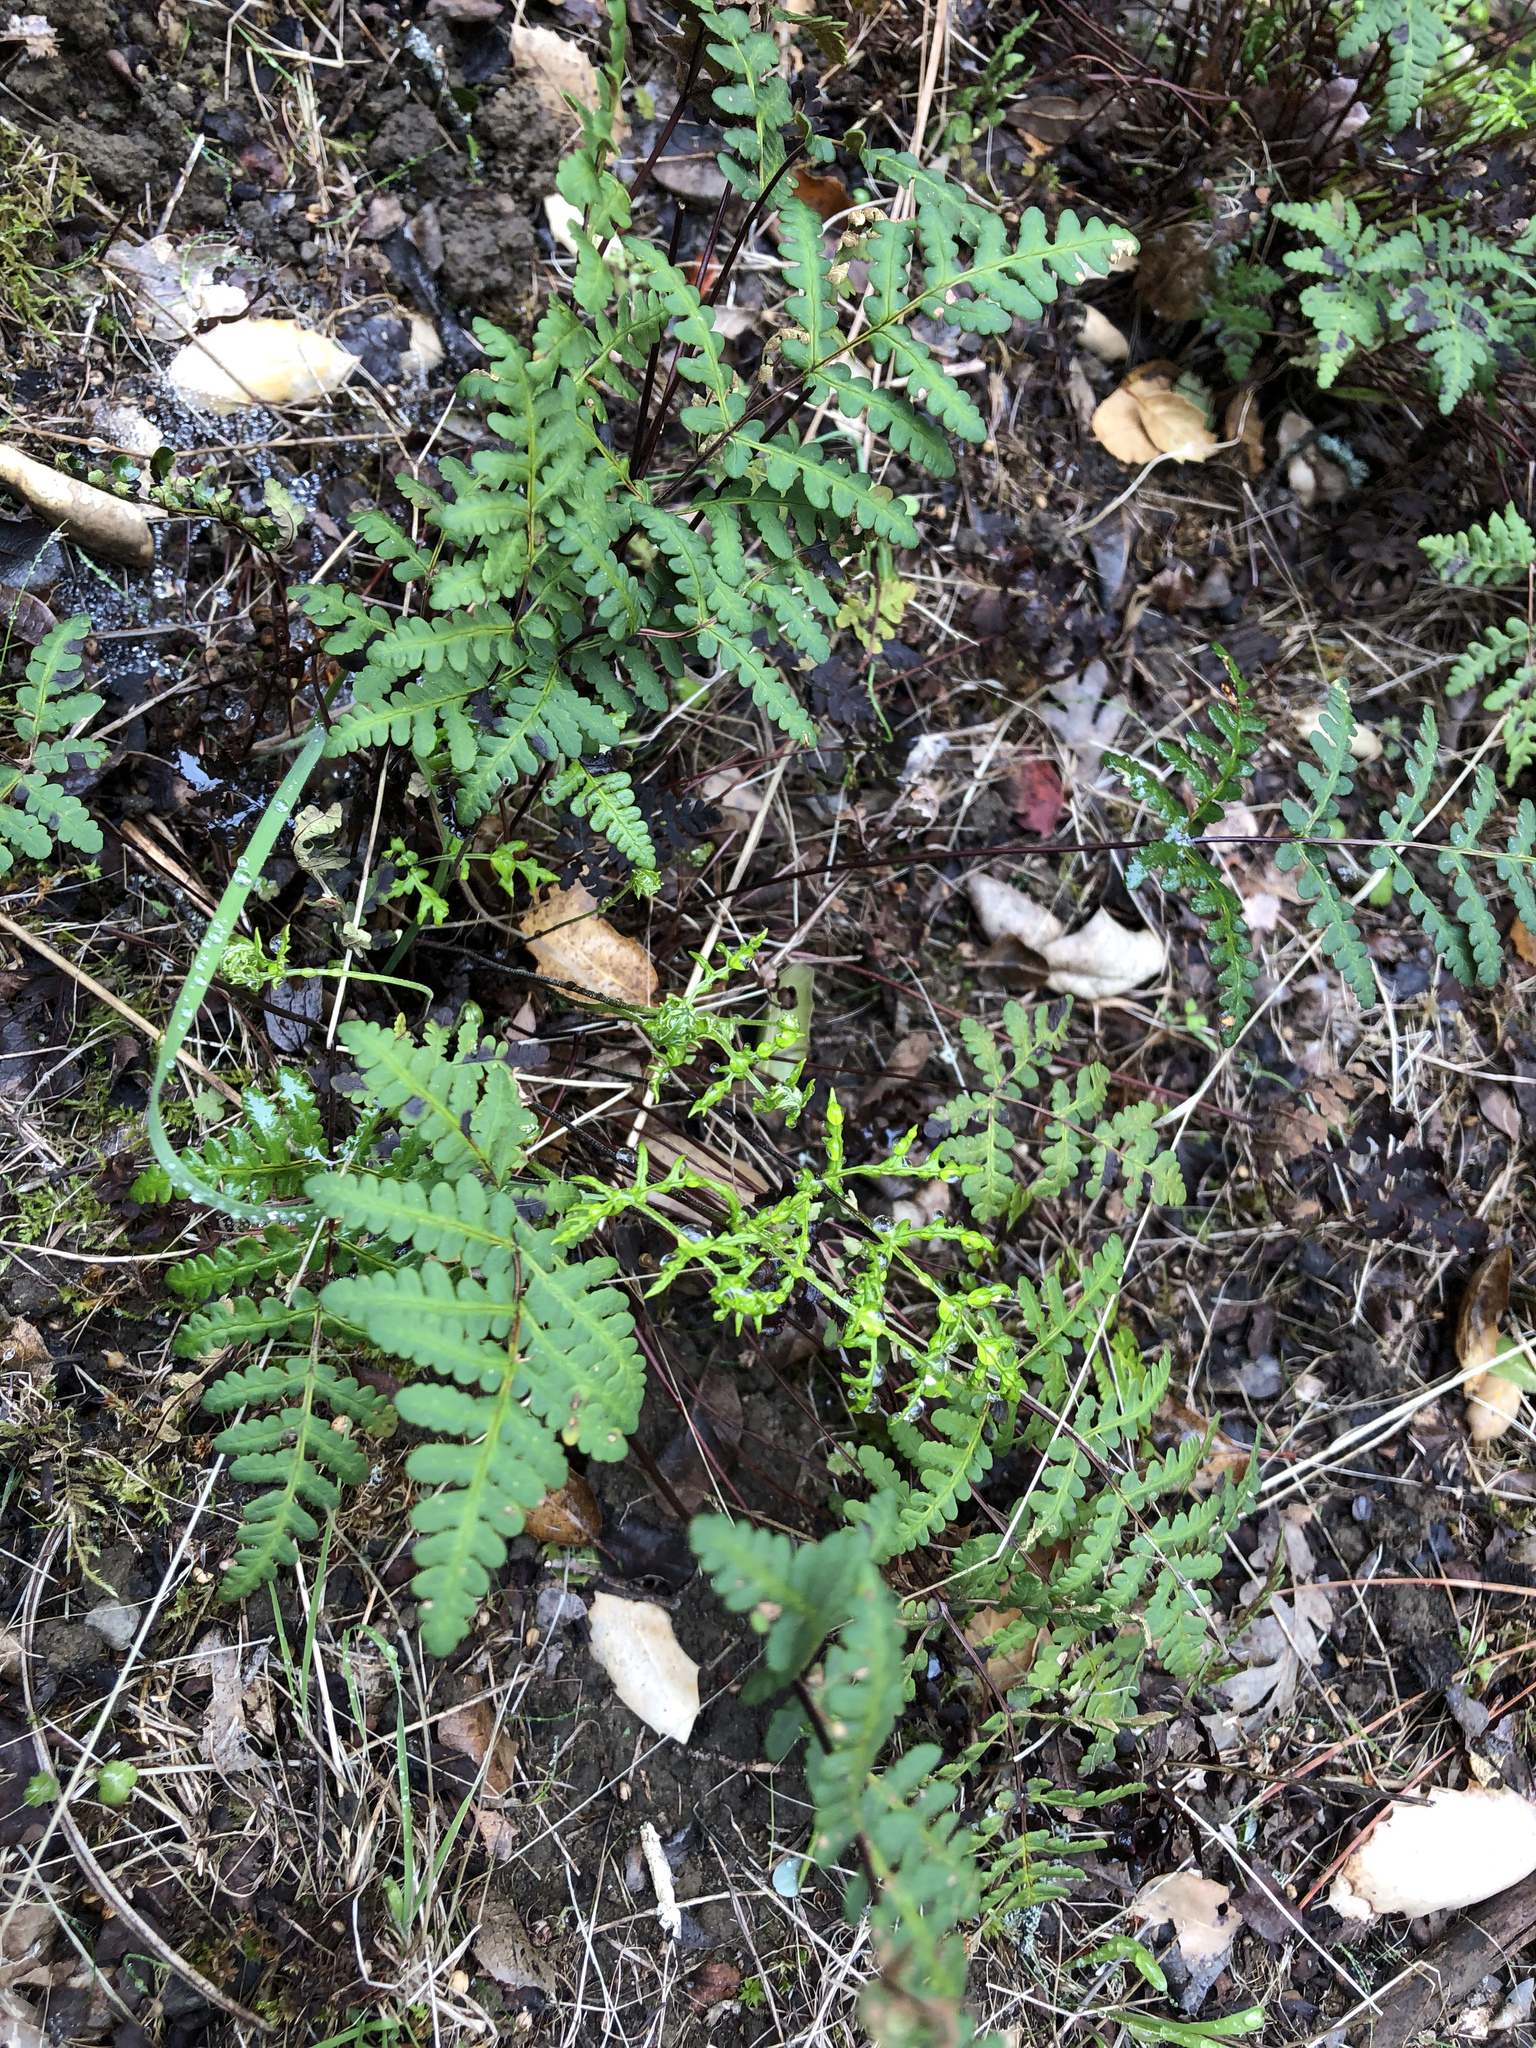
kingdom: Plantae
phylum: Tracheophyta
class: Polypodiopsida
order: Polypodiales
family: Pteridaceae
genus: Pentagramma
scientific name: Pentagramma triangularis
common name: Gold fern
